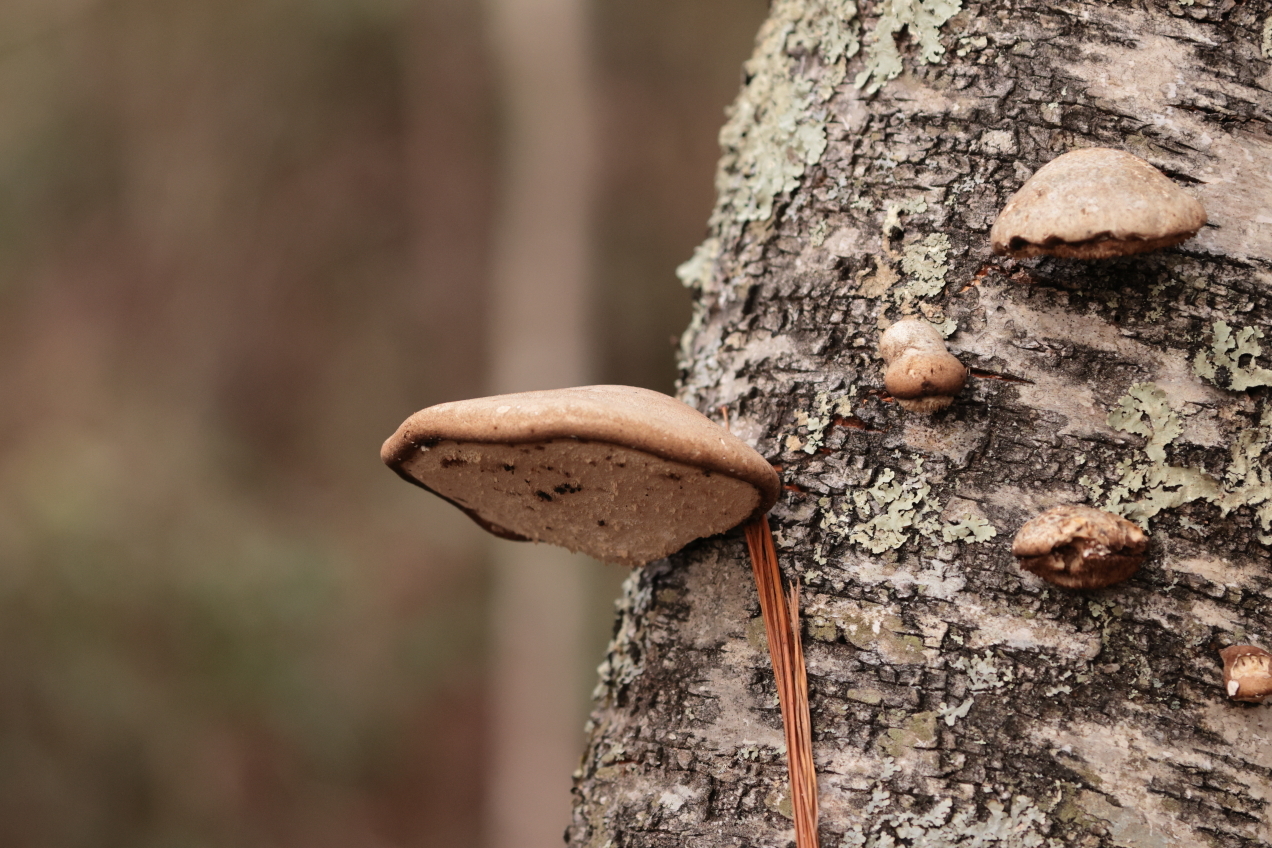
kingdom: Fungi
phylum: Basidiomycota
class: Agaricomycetes
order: Polyporales
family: Fomitopsidaceae
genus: Fomitopsis
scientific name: Fomitopsis betulina
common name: Birch polypore
